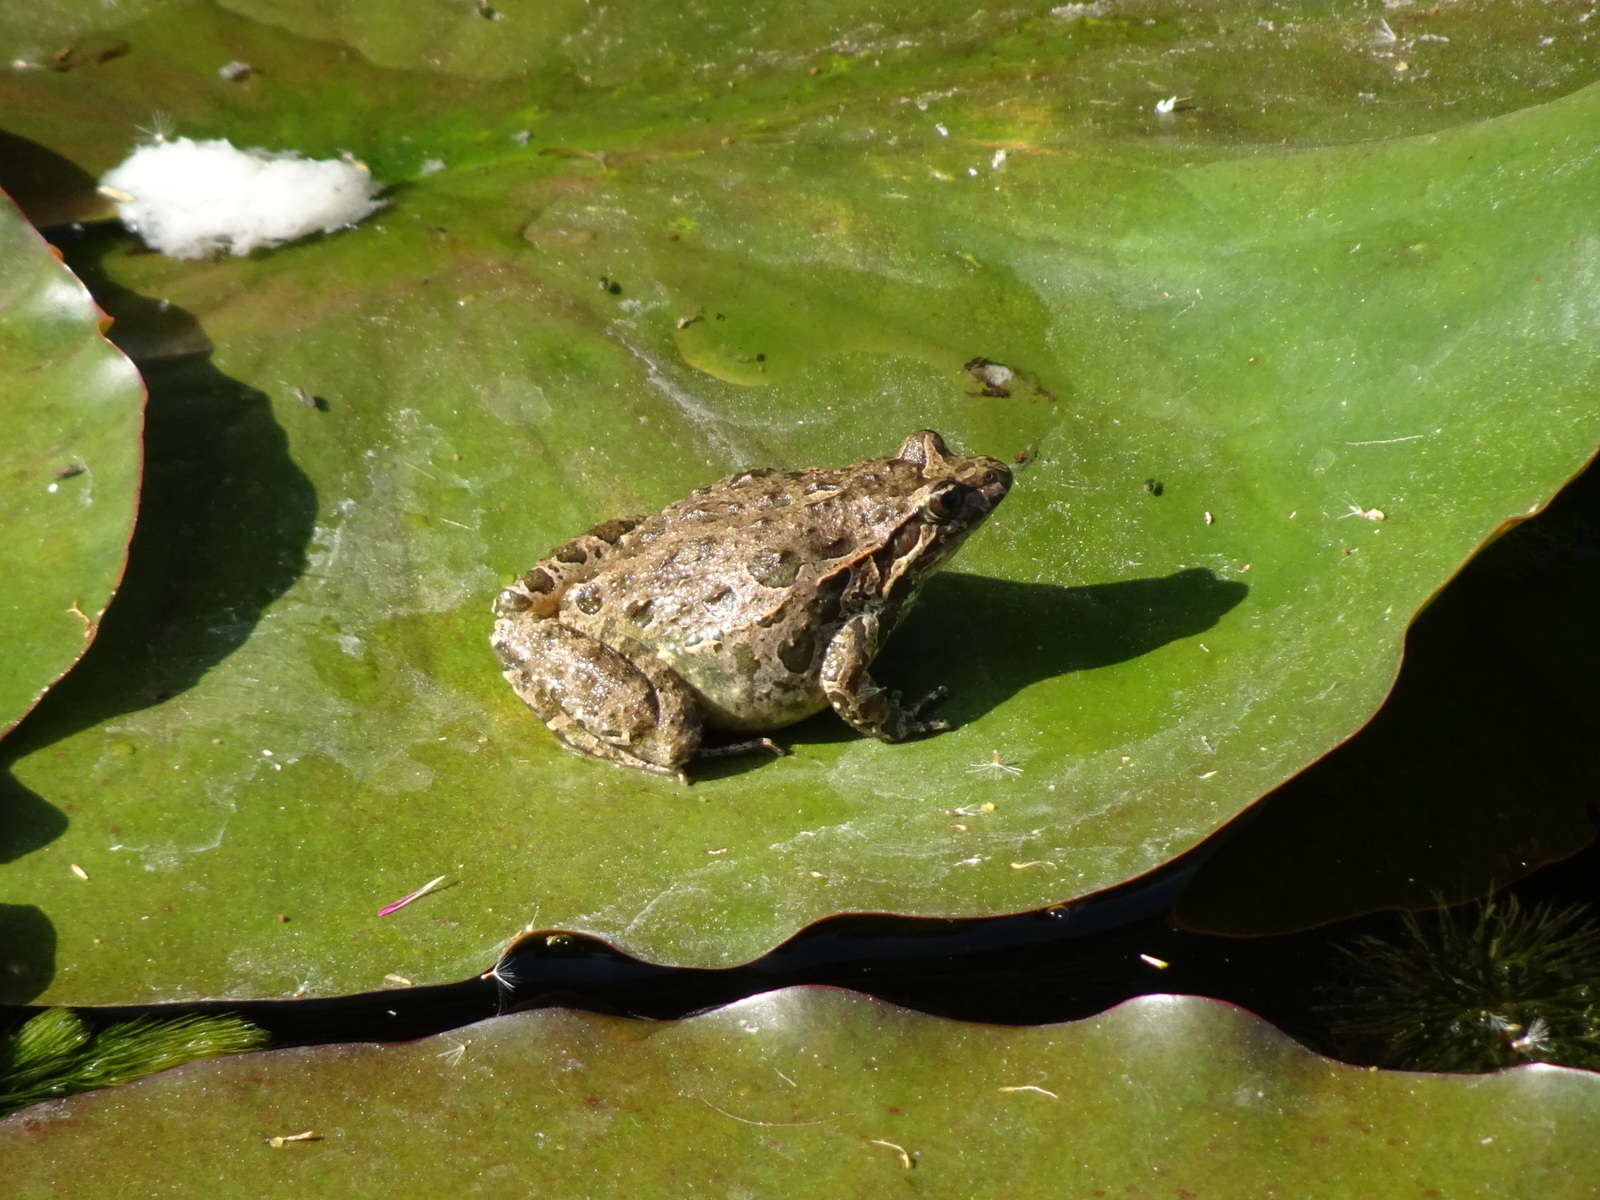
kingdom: Animalia
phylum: Chordata
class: Amphibia
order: Anura
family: Alytidae
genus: Discoglossus
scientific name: Discoglossus pictus
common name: Painted frog
